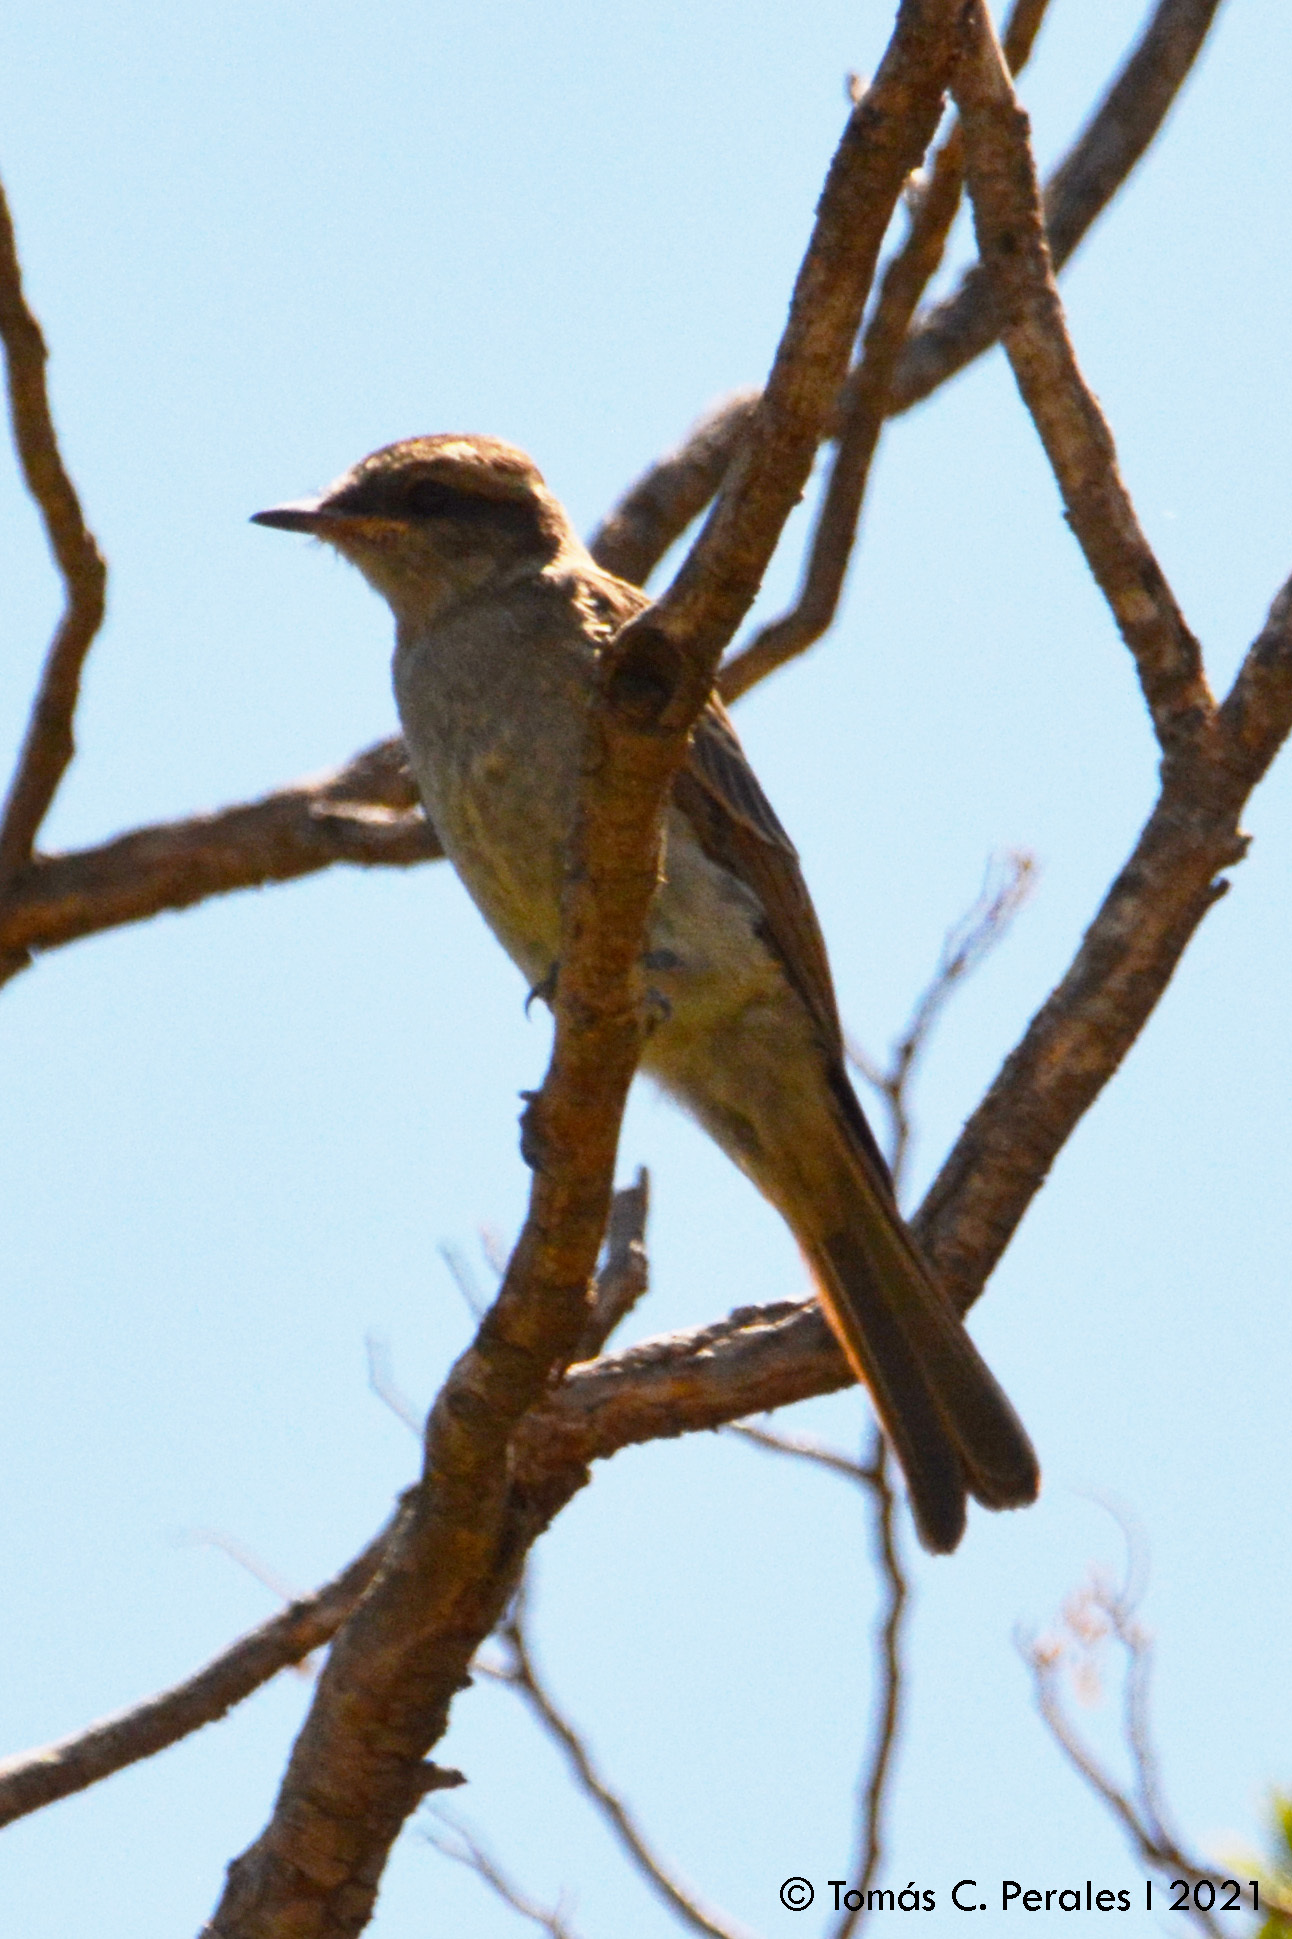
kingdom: Animalia
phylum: Chordata
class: Aves
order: Passeriformes
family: Tyrannidae
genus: Empidonomus
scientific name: Empidonomus aurantioatrocristatus
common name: Crowned slaty flycatcher
